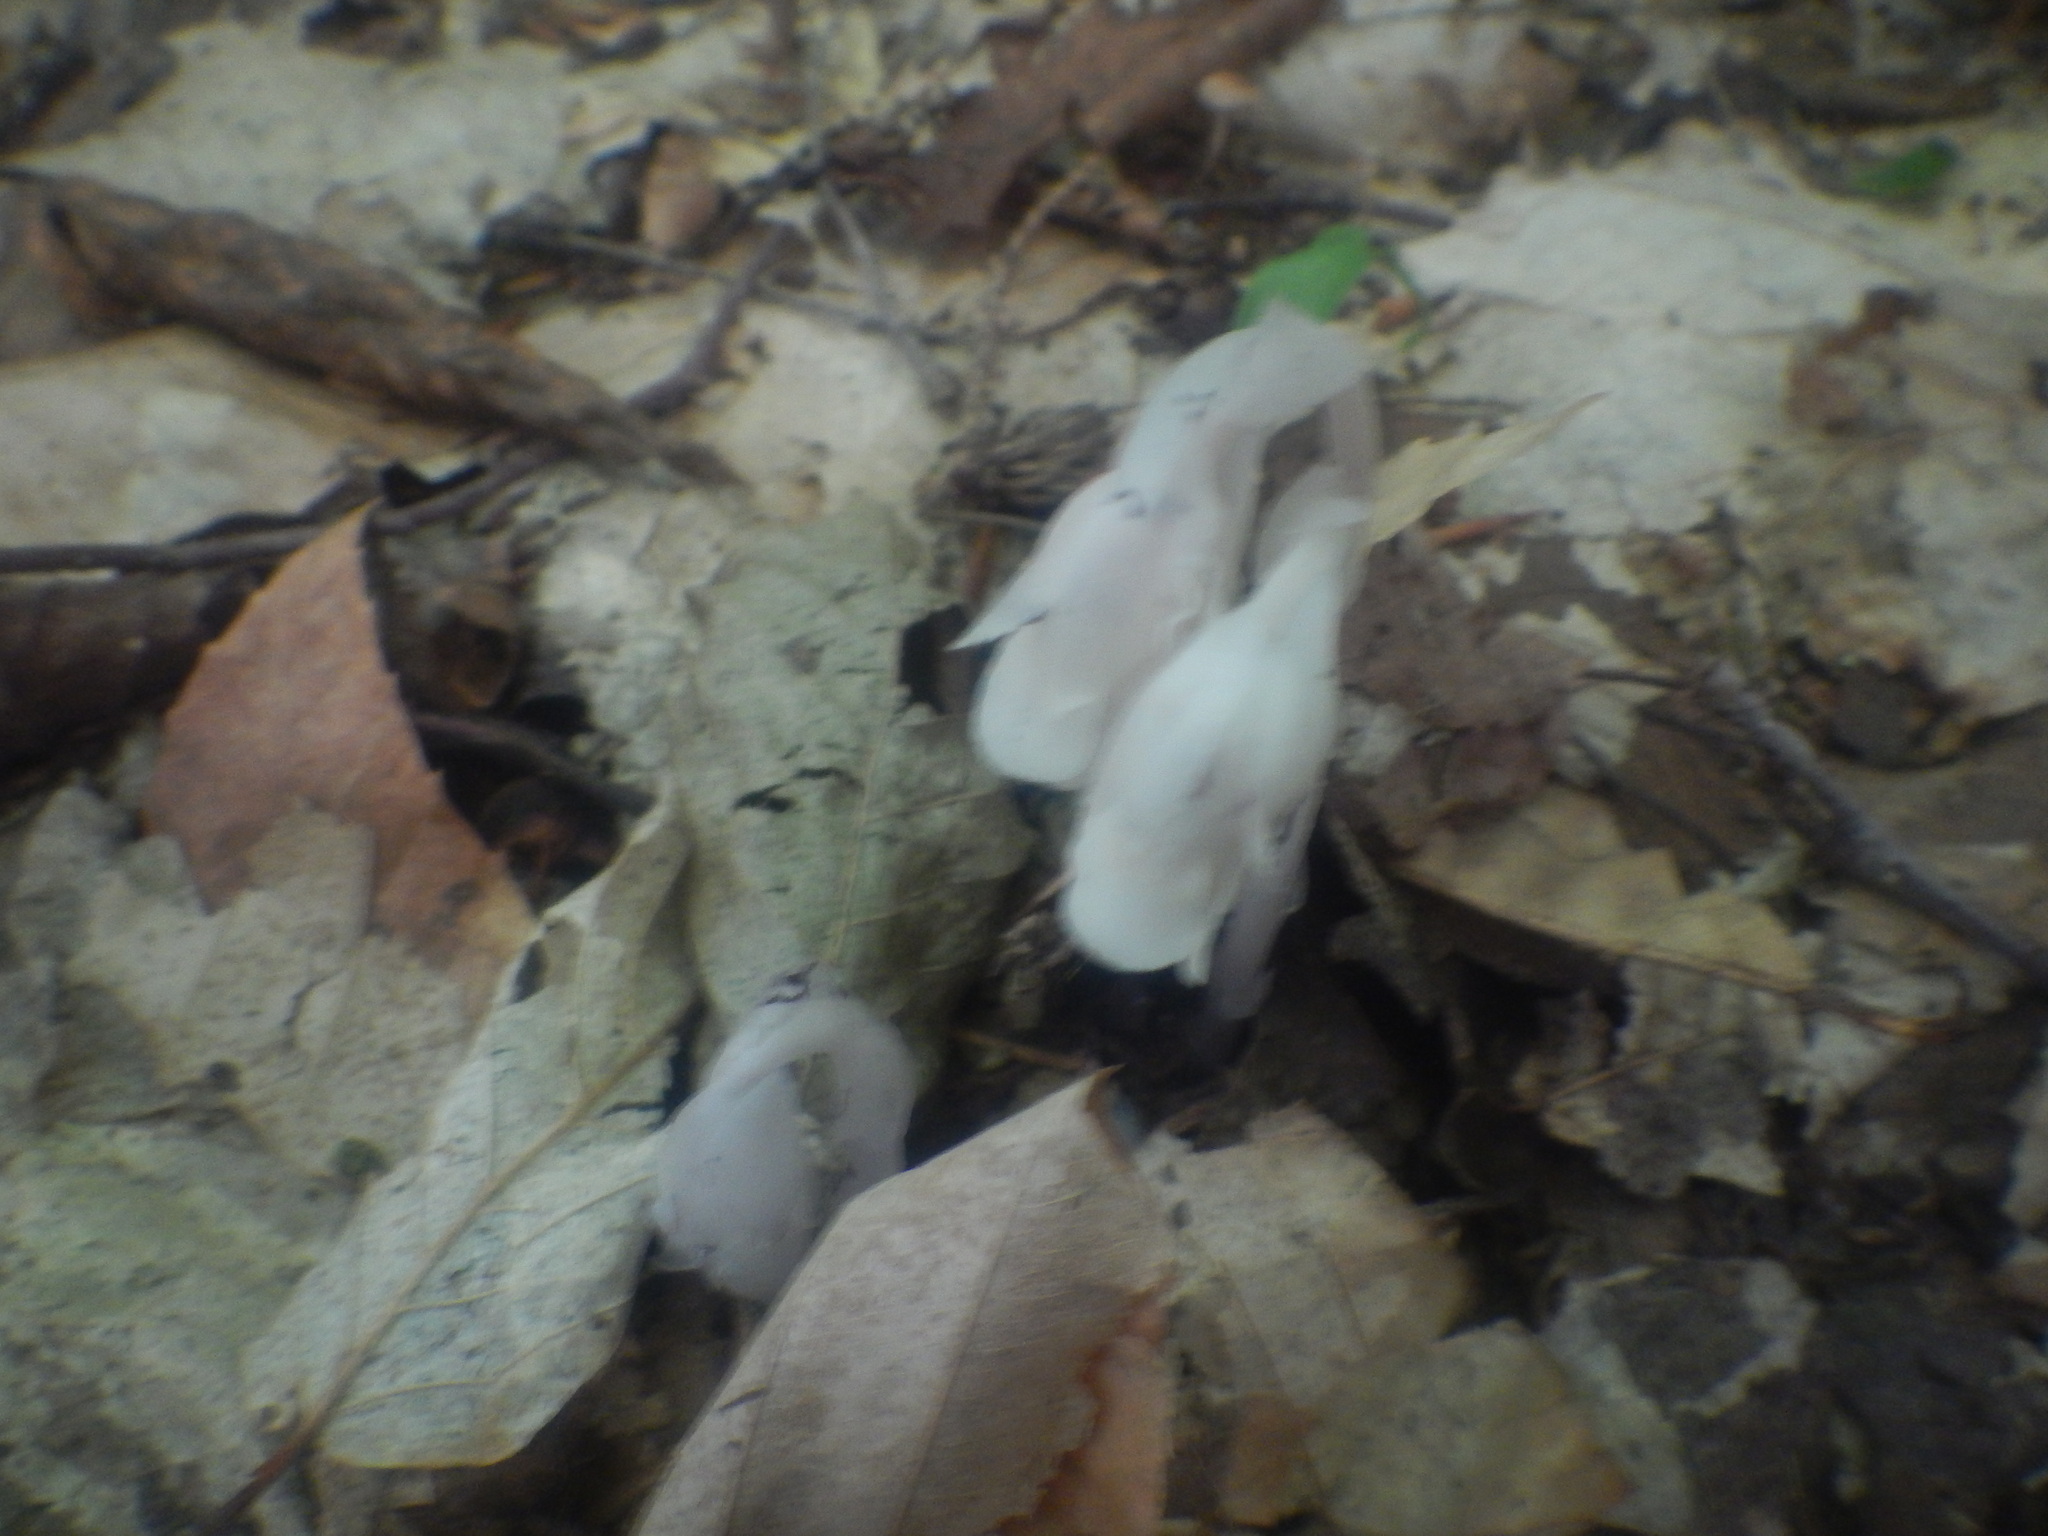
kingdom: Plantae
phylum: Tracheophyta
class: Magnoliopsida
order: Ericales
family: Ericaceae
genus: Monotropa
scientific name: Monotropa uniflora
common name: Convulsion root
